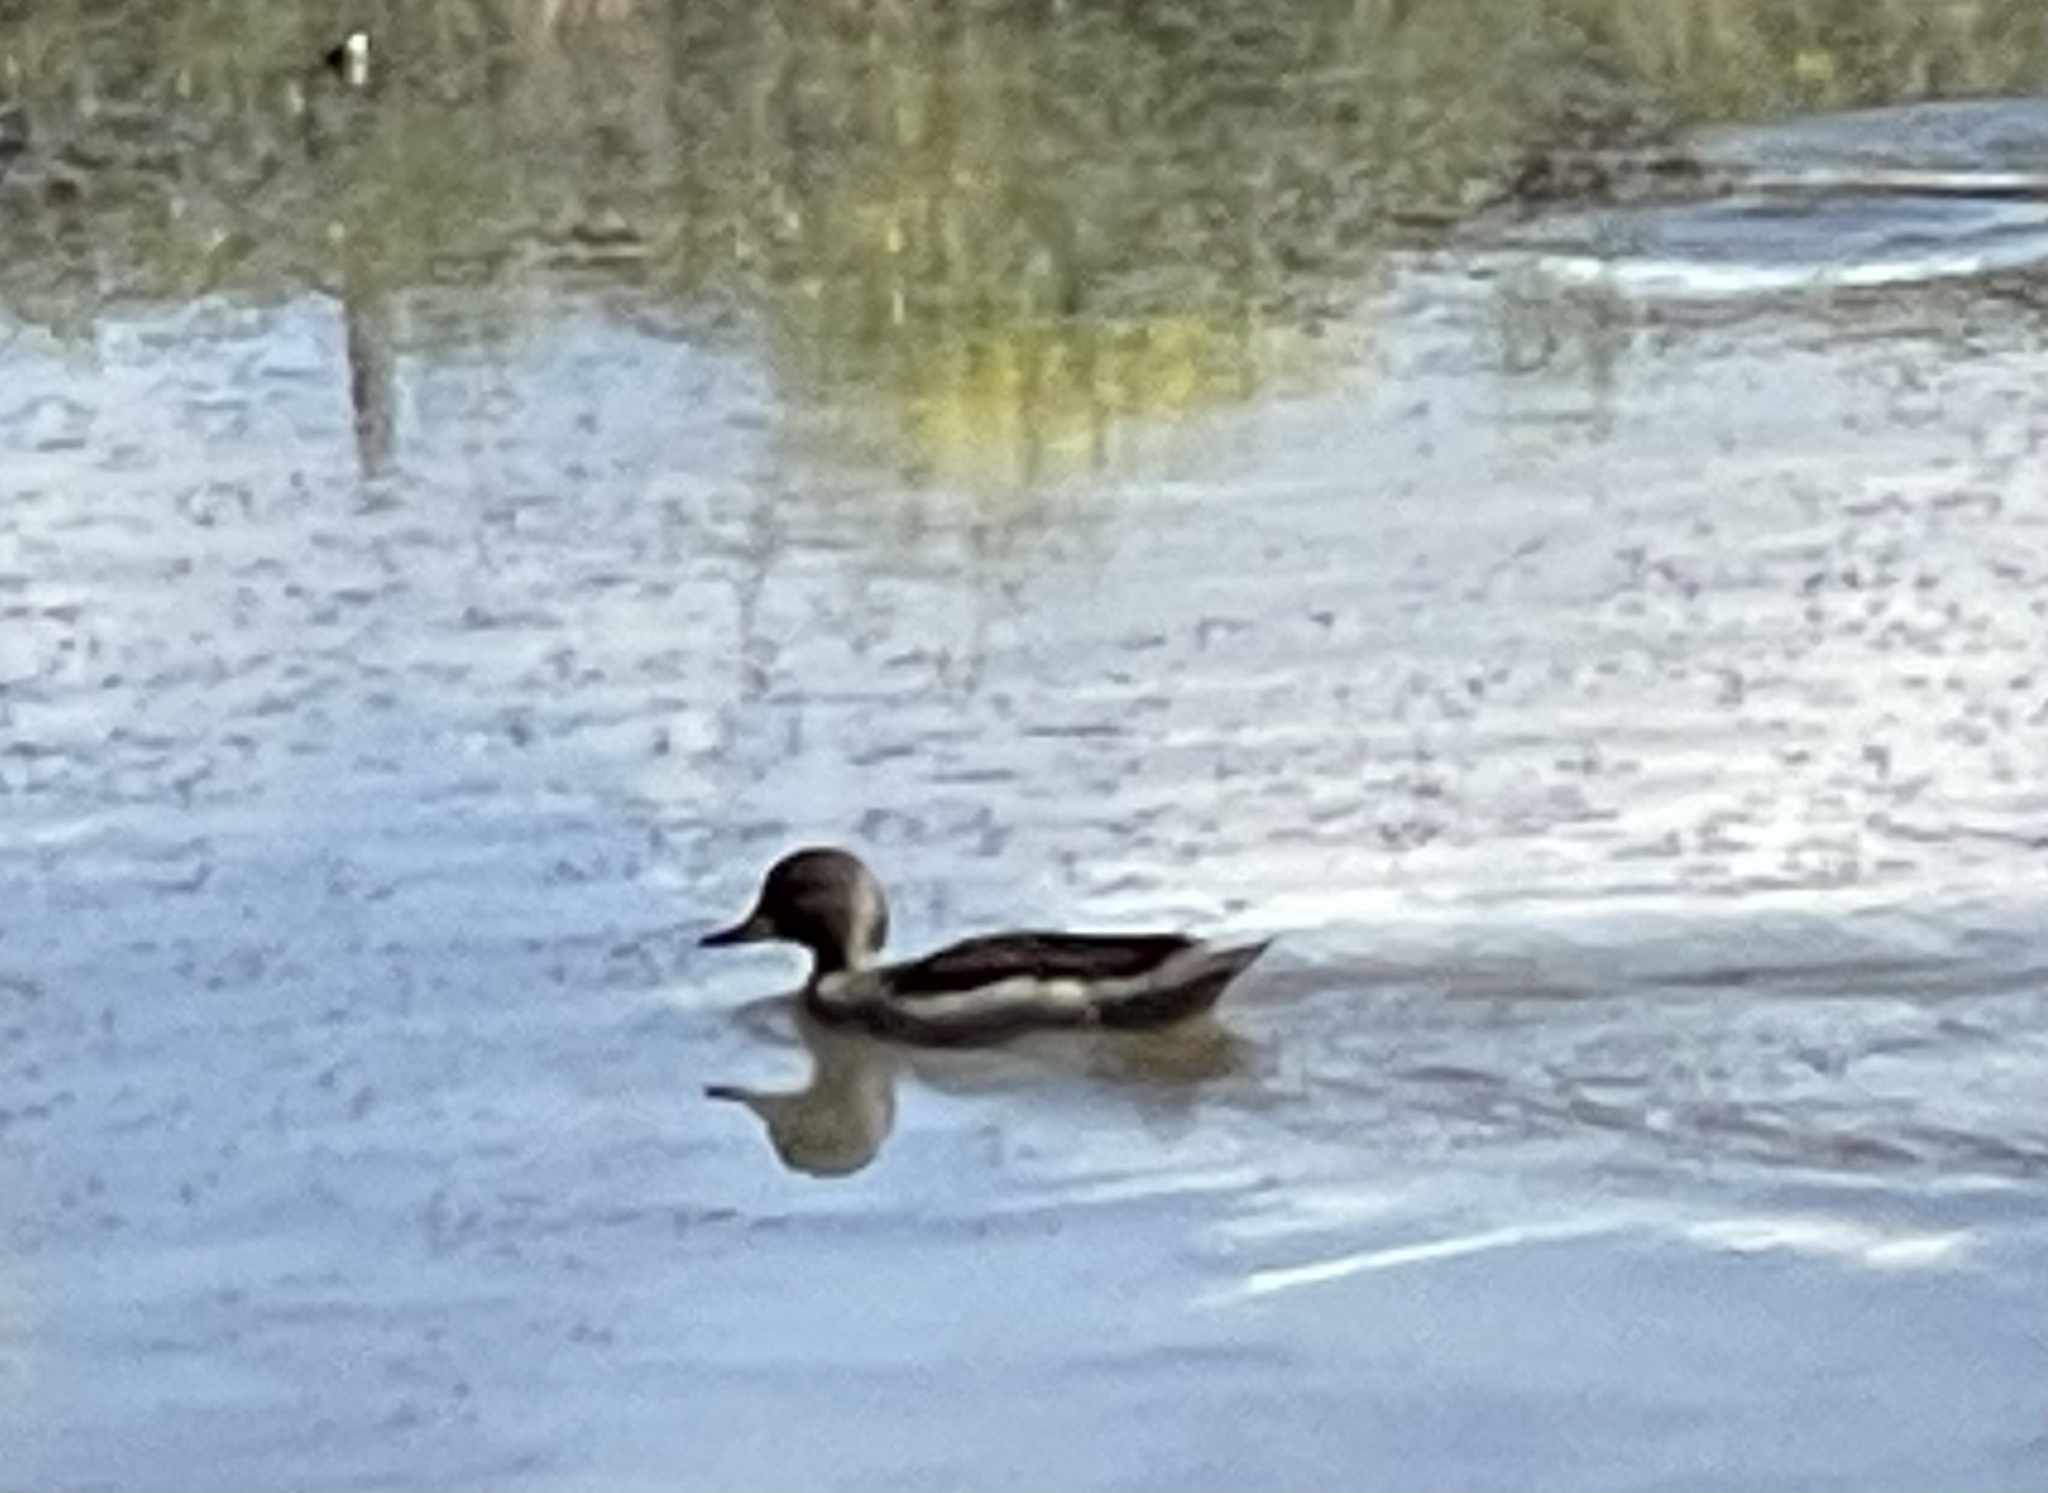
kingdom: Animalia
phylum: Chordata
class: Aves
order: Anseriformes
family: Anatidae
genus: Anas
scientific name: Anas flavirostris
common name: Yellow-billed teal
